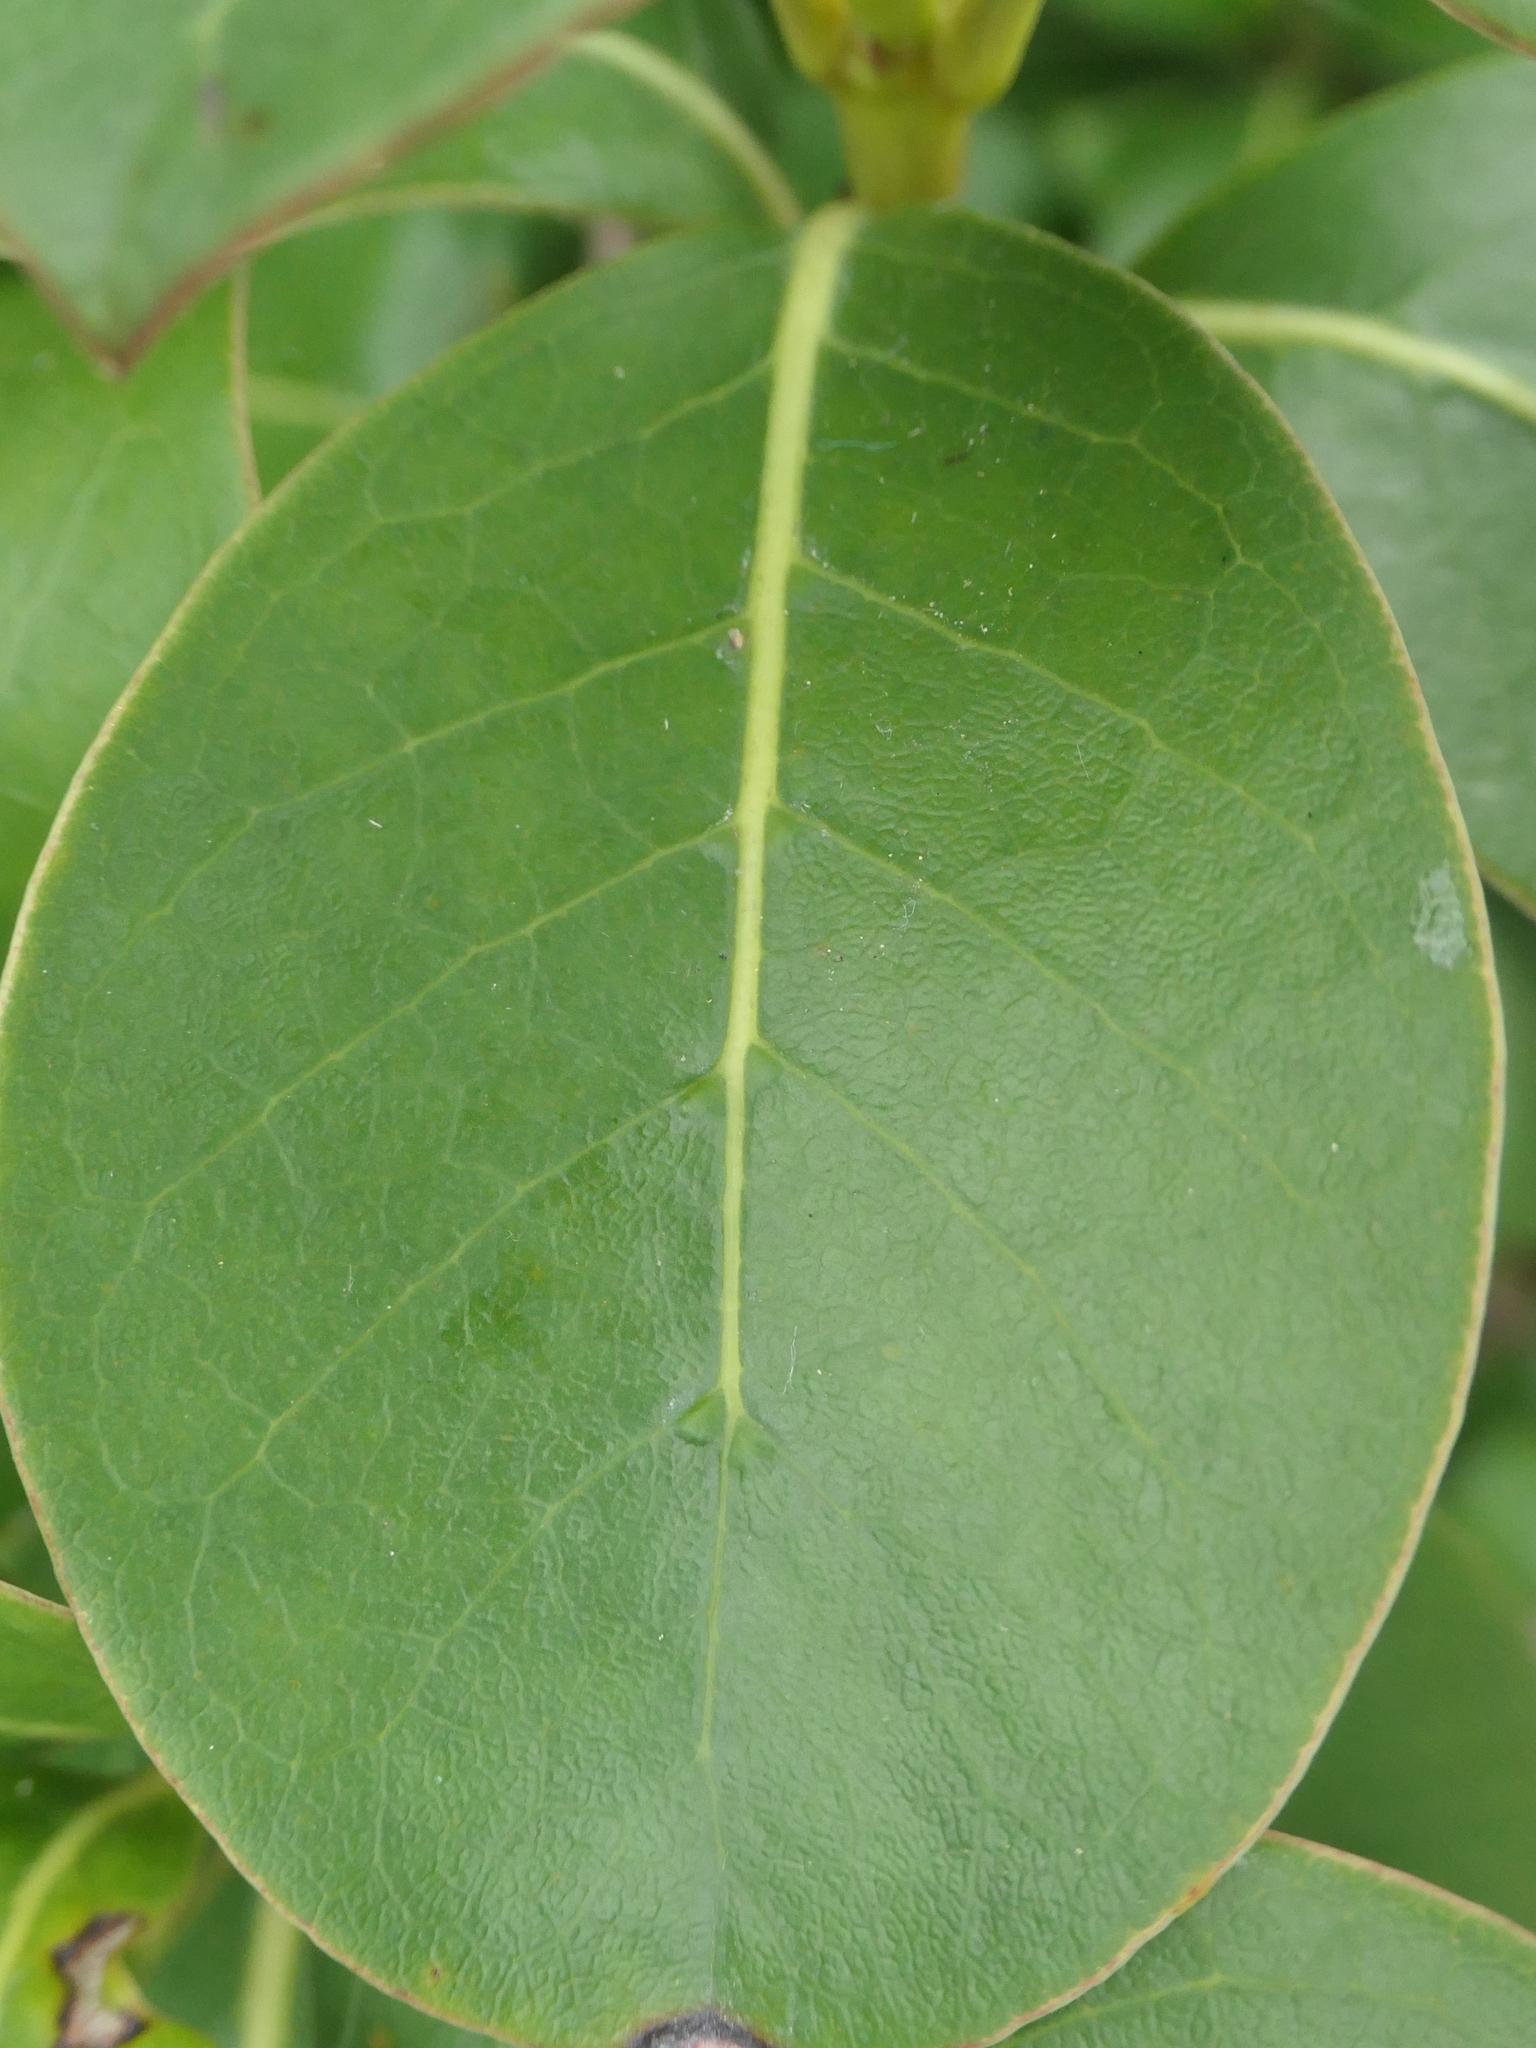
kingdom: Plantae
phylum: Tracheophyta
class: Magnoliopsida
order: Gentianales
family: Rubiaceae
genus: Coprosma
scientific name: Coprosma lucida
